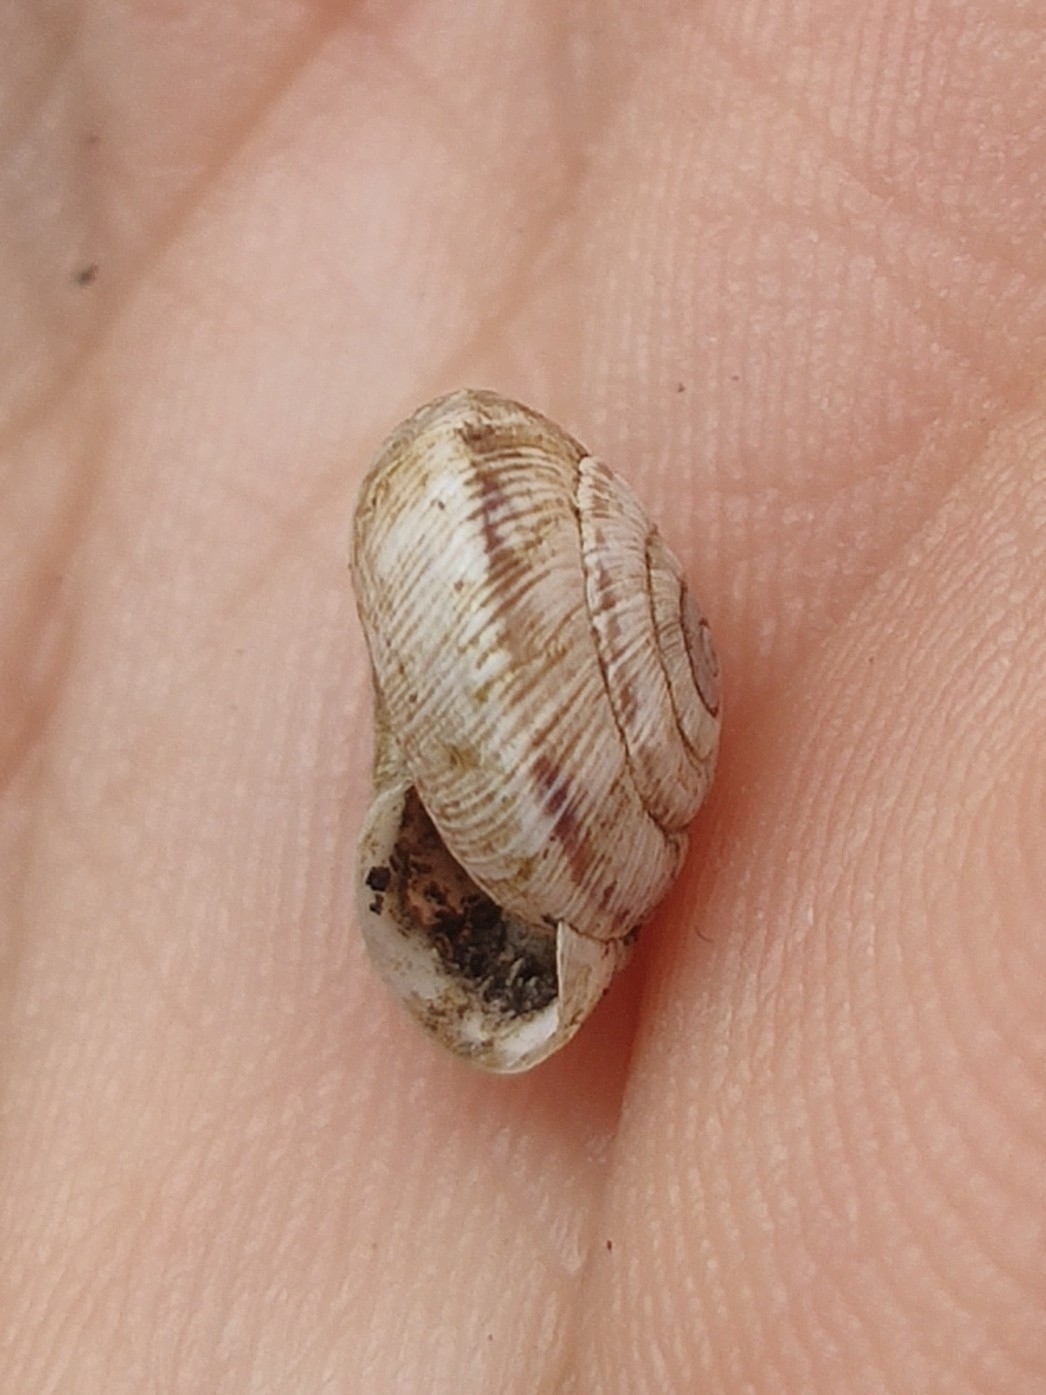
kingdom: Animalia
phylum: Mollusca
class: Gastropoda
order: Stylommatophora
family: Geomitridae
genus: Xeroplexa
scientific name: Xeroplexa intersecta
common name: Wrinkled snail
